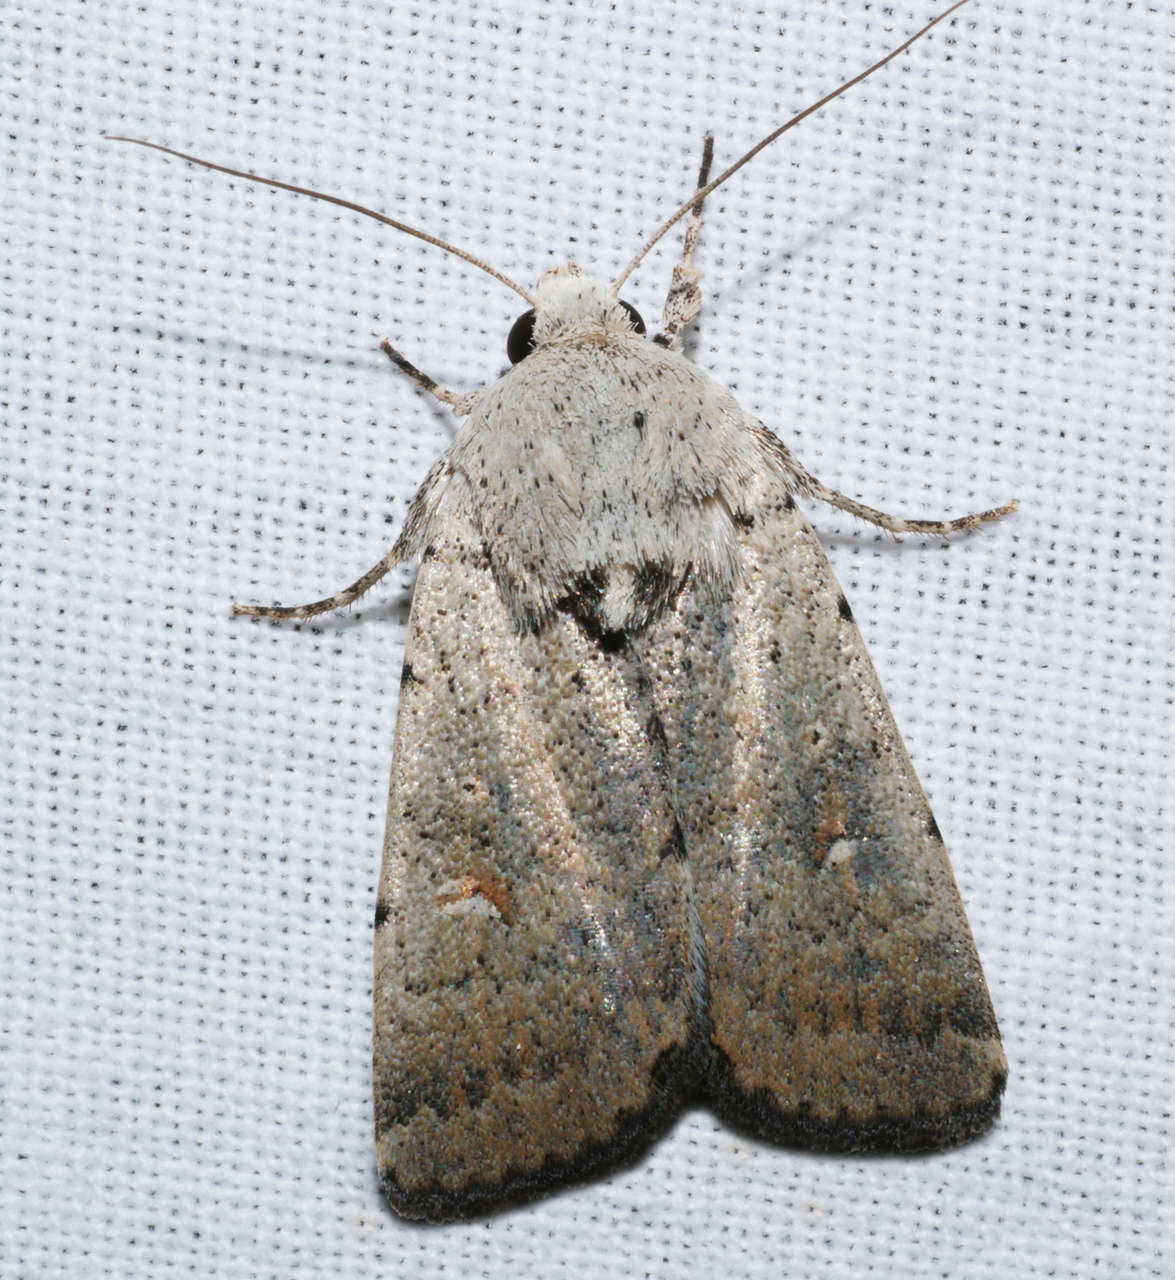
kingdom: Animalia
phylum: Arthropoda
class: Insecta
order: Lepidoptera
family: Noctuidae
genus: Proteuxoa
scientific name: Proteuxoa paratorna
